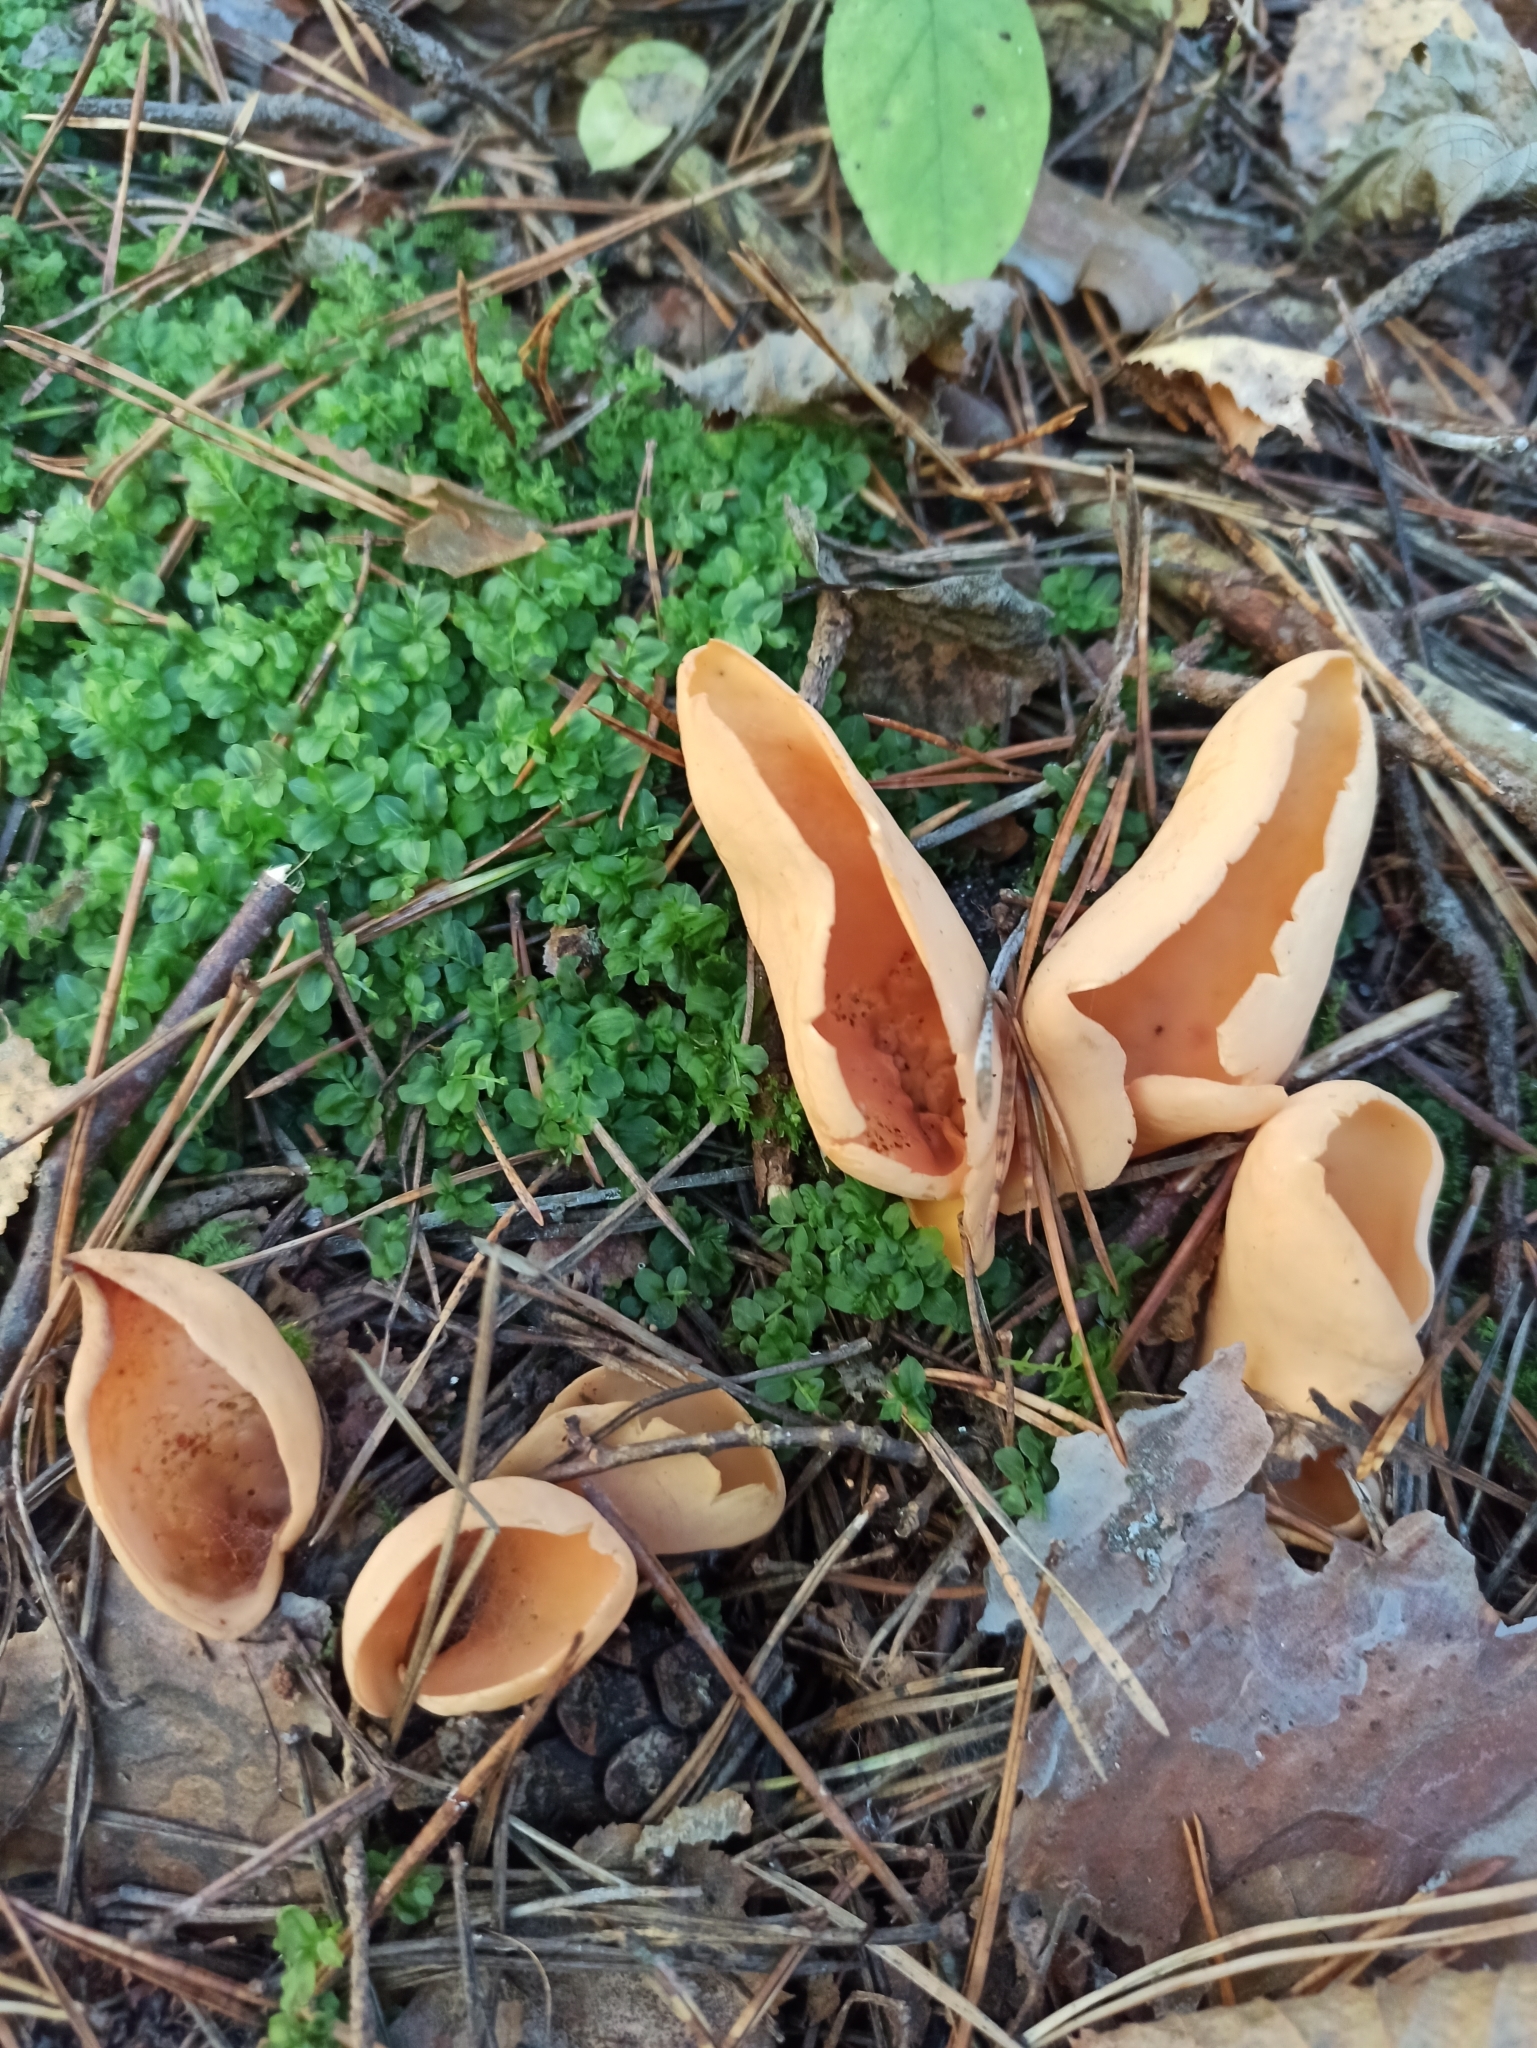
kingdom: Fungi
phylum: Ascomycota
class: Pezizomycetes
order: Pezizales
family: Otideaceae
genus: Otidea
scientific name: Otidea onotica
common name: Hare's ear
